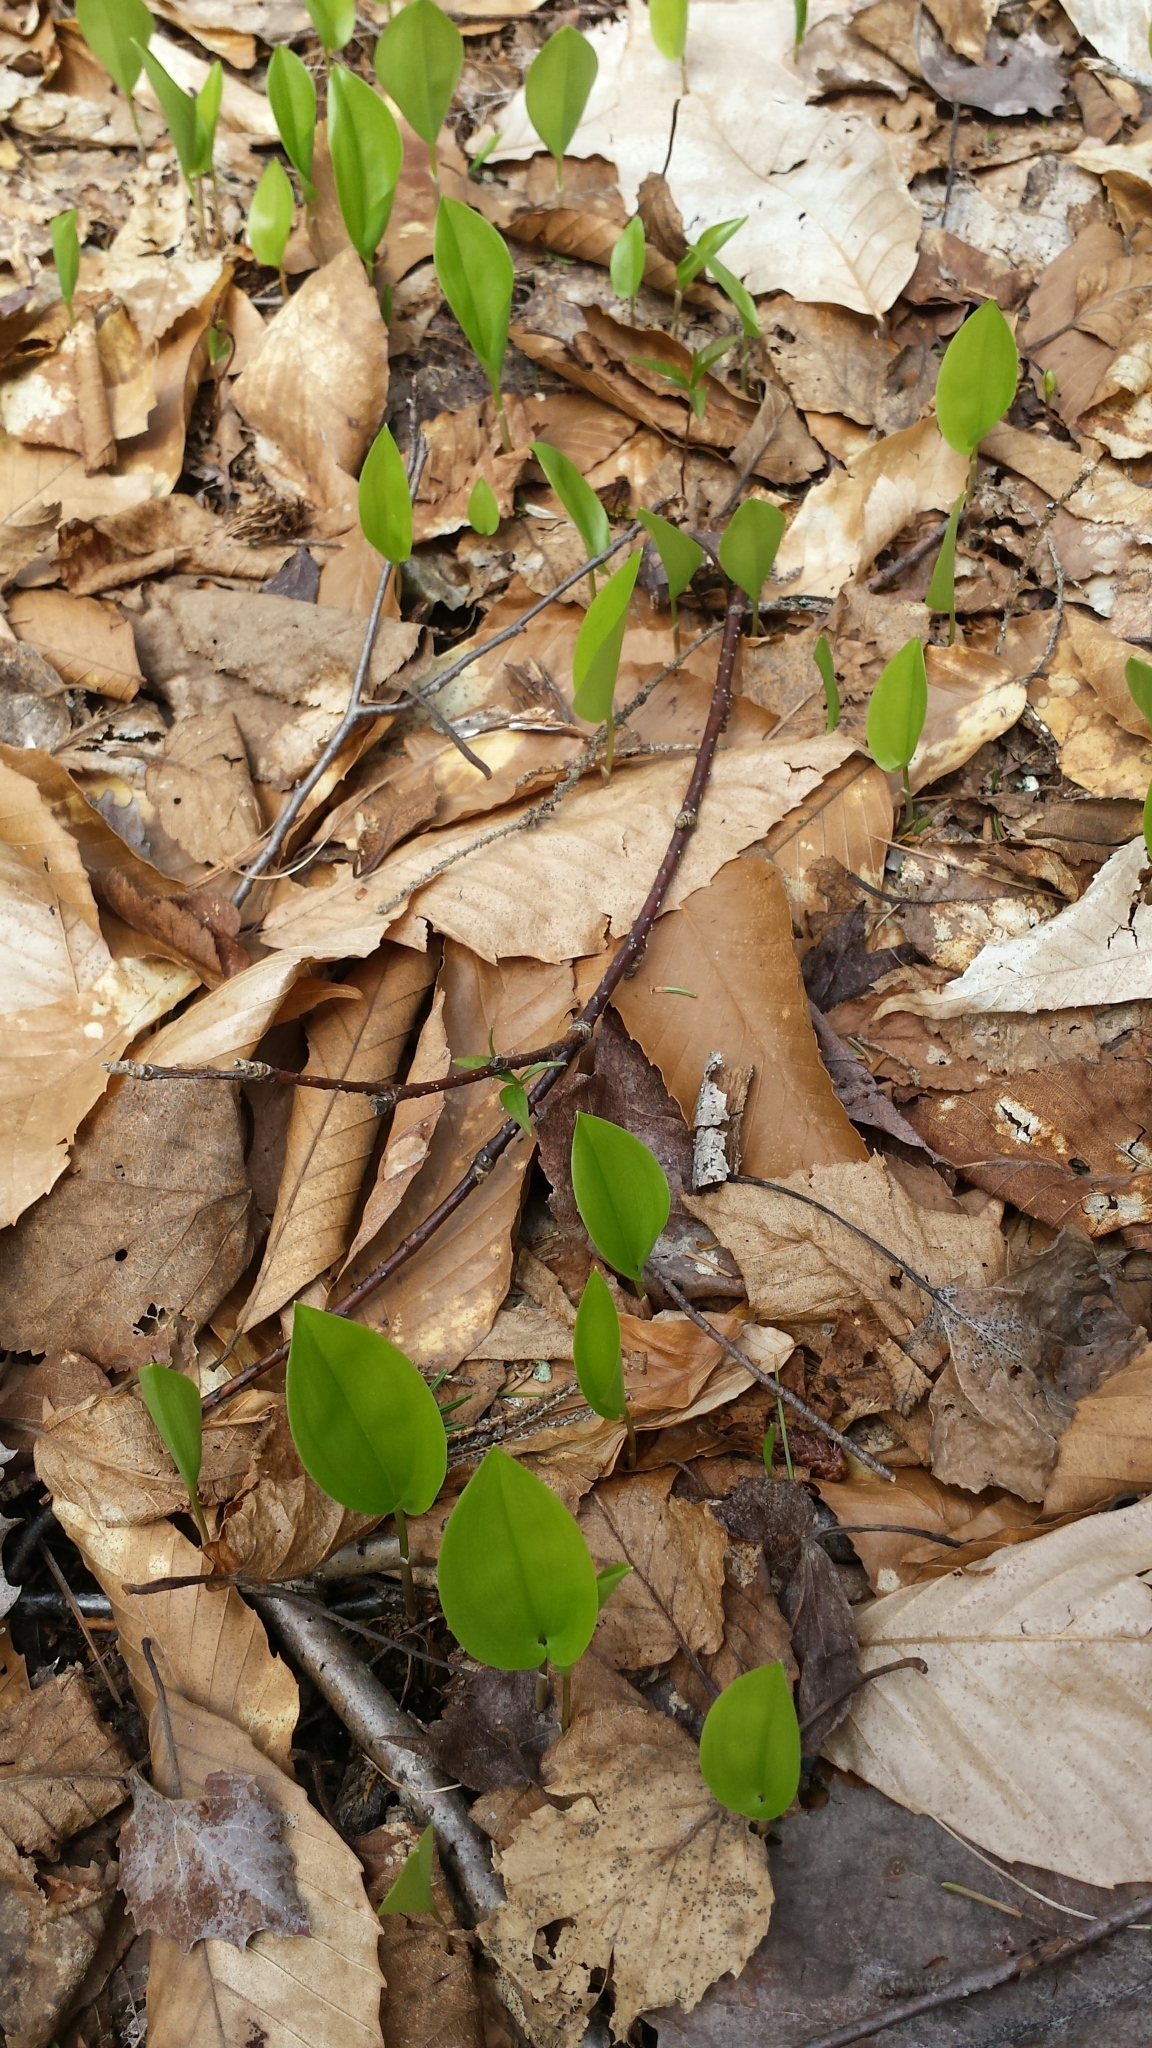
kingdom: Plantae
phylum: Tracheophyta
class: Liliopsida
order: Asparagales
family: Asparagaceae
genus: Maianthemum
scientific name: Maianthemum canadense
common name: False lily-of-the-valley
